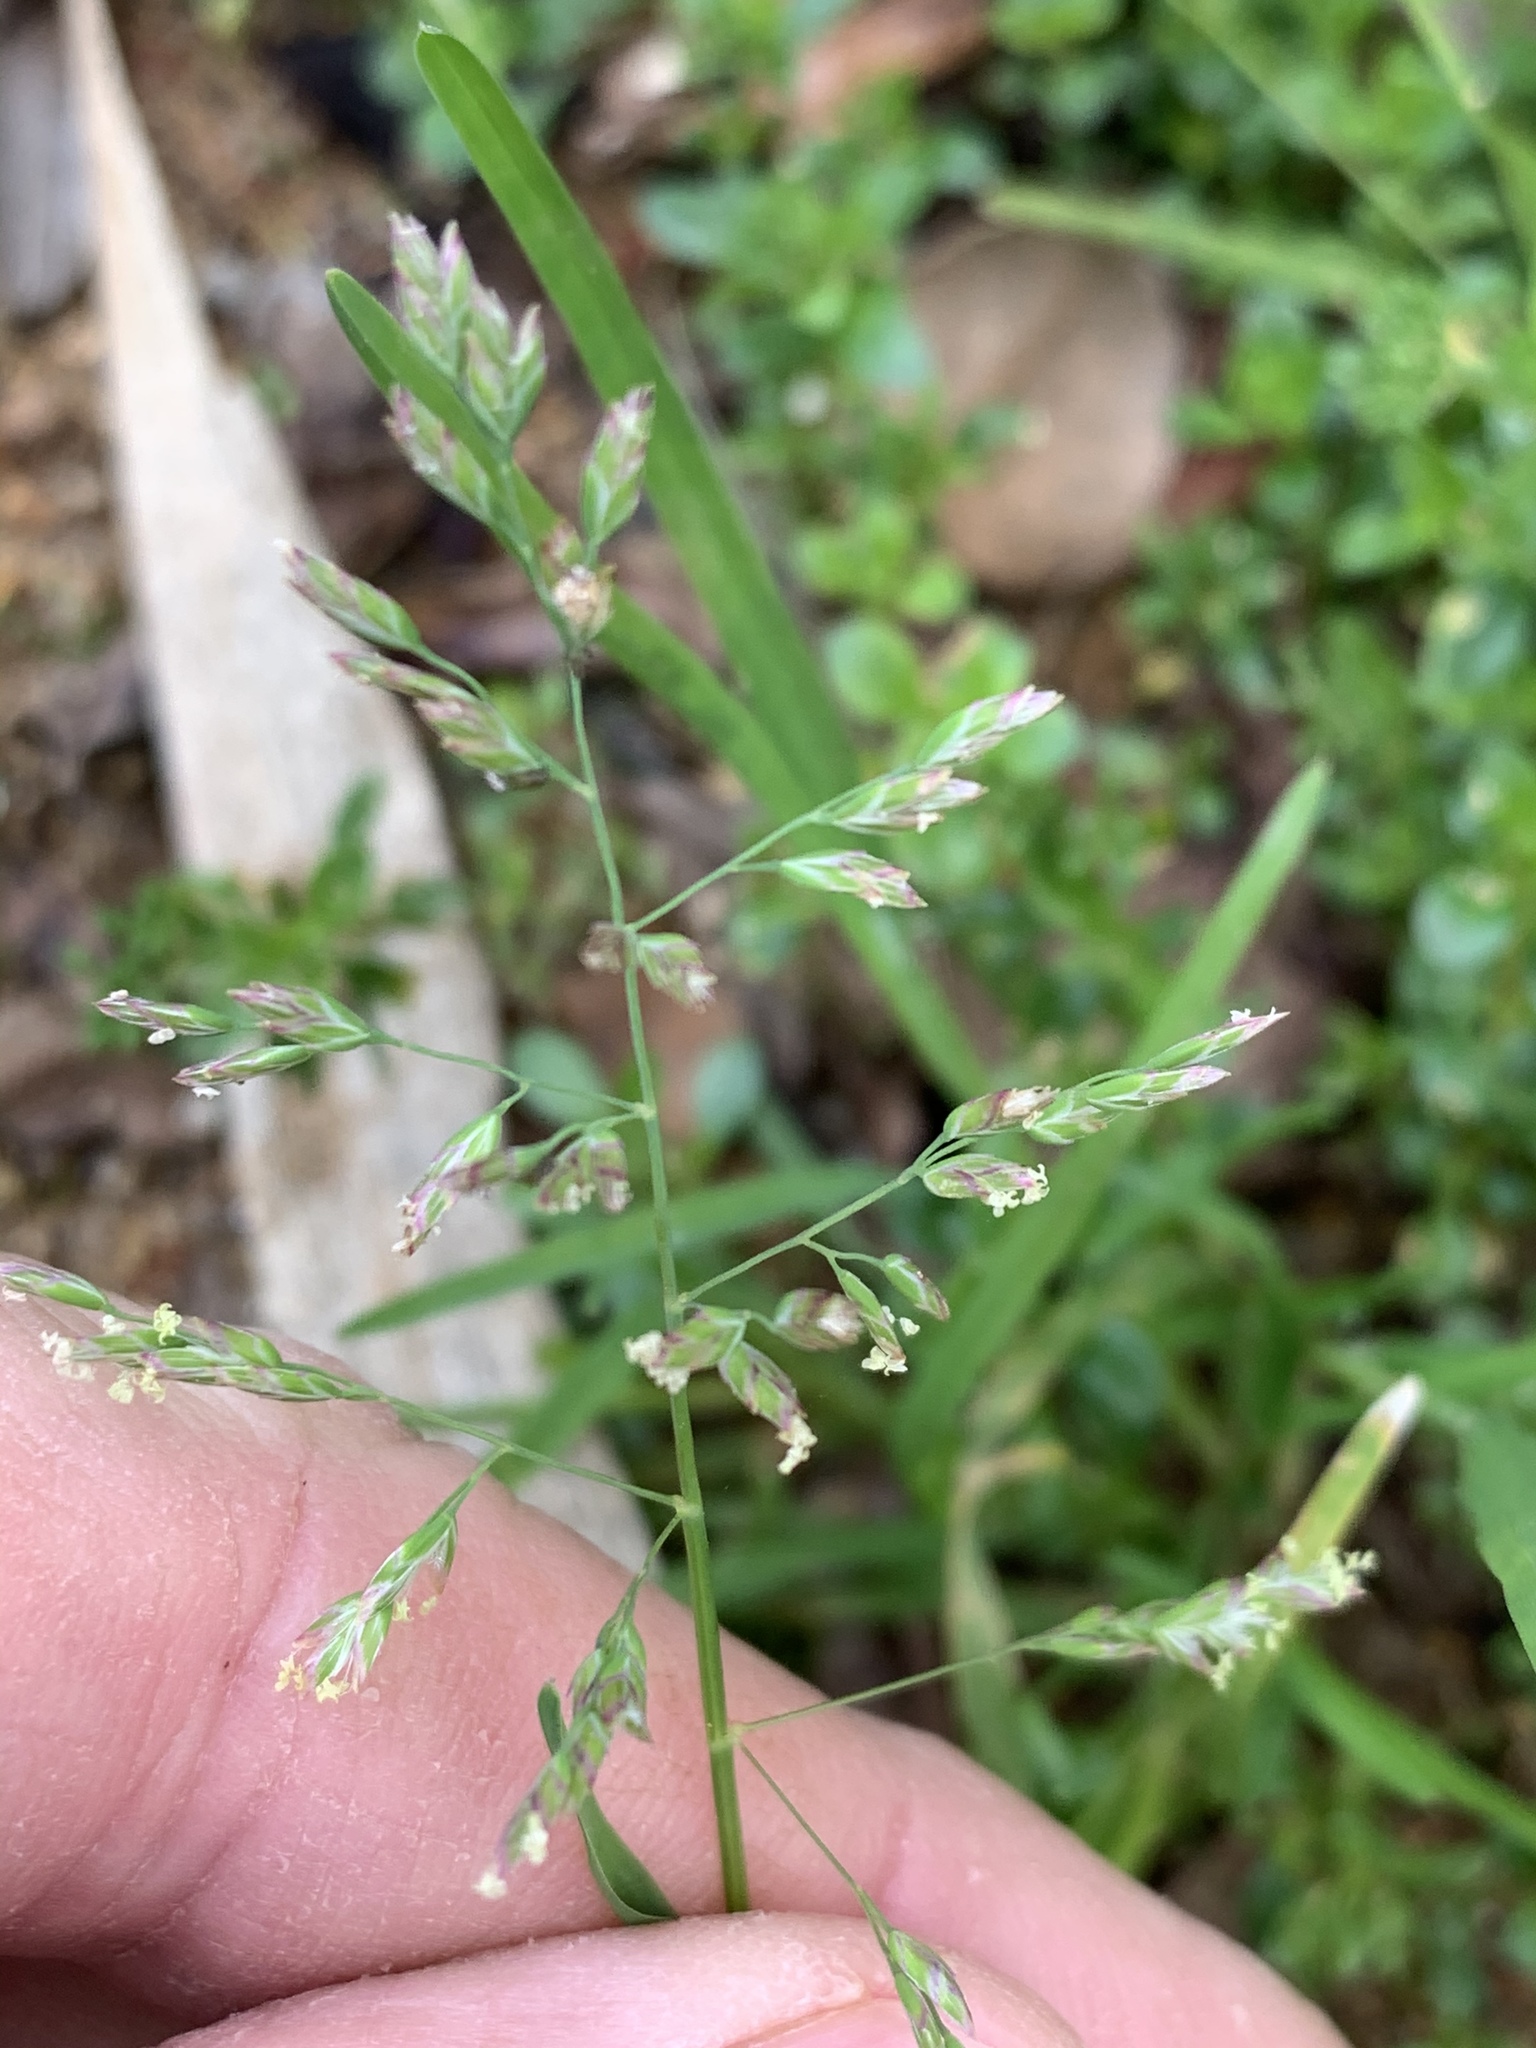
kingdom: Plantae
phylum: Tracheophyta
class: Liliopsida
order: Poales
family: Poaceae
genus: Poa
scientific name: Poa annua
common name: Annual bluegrass
